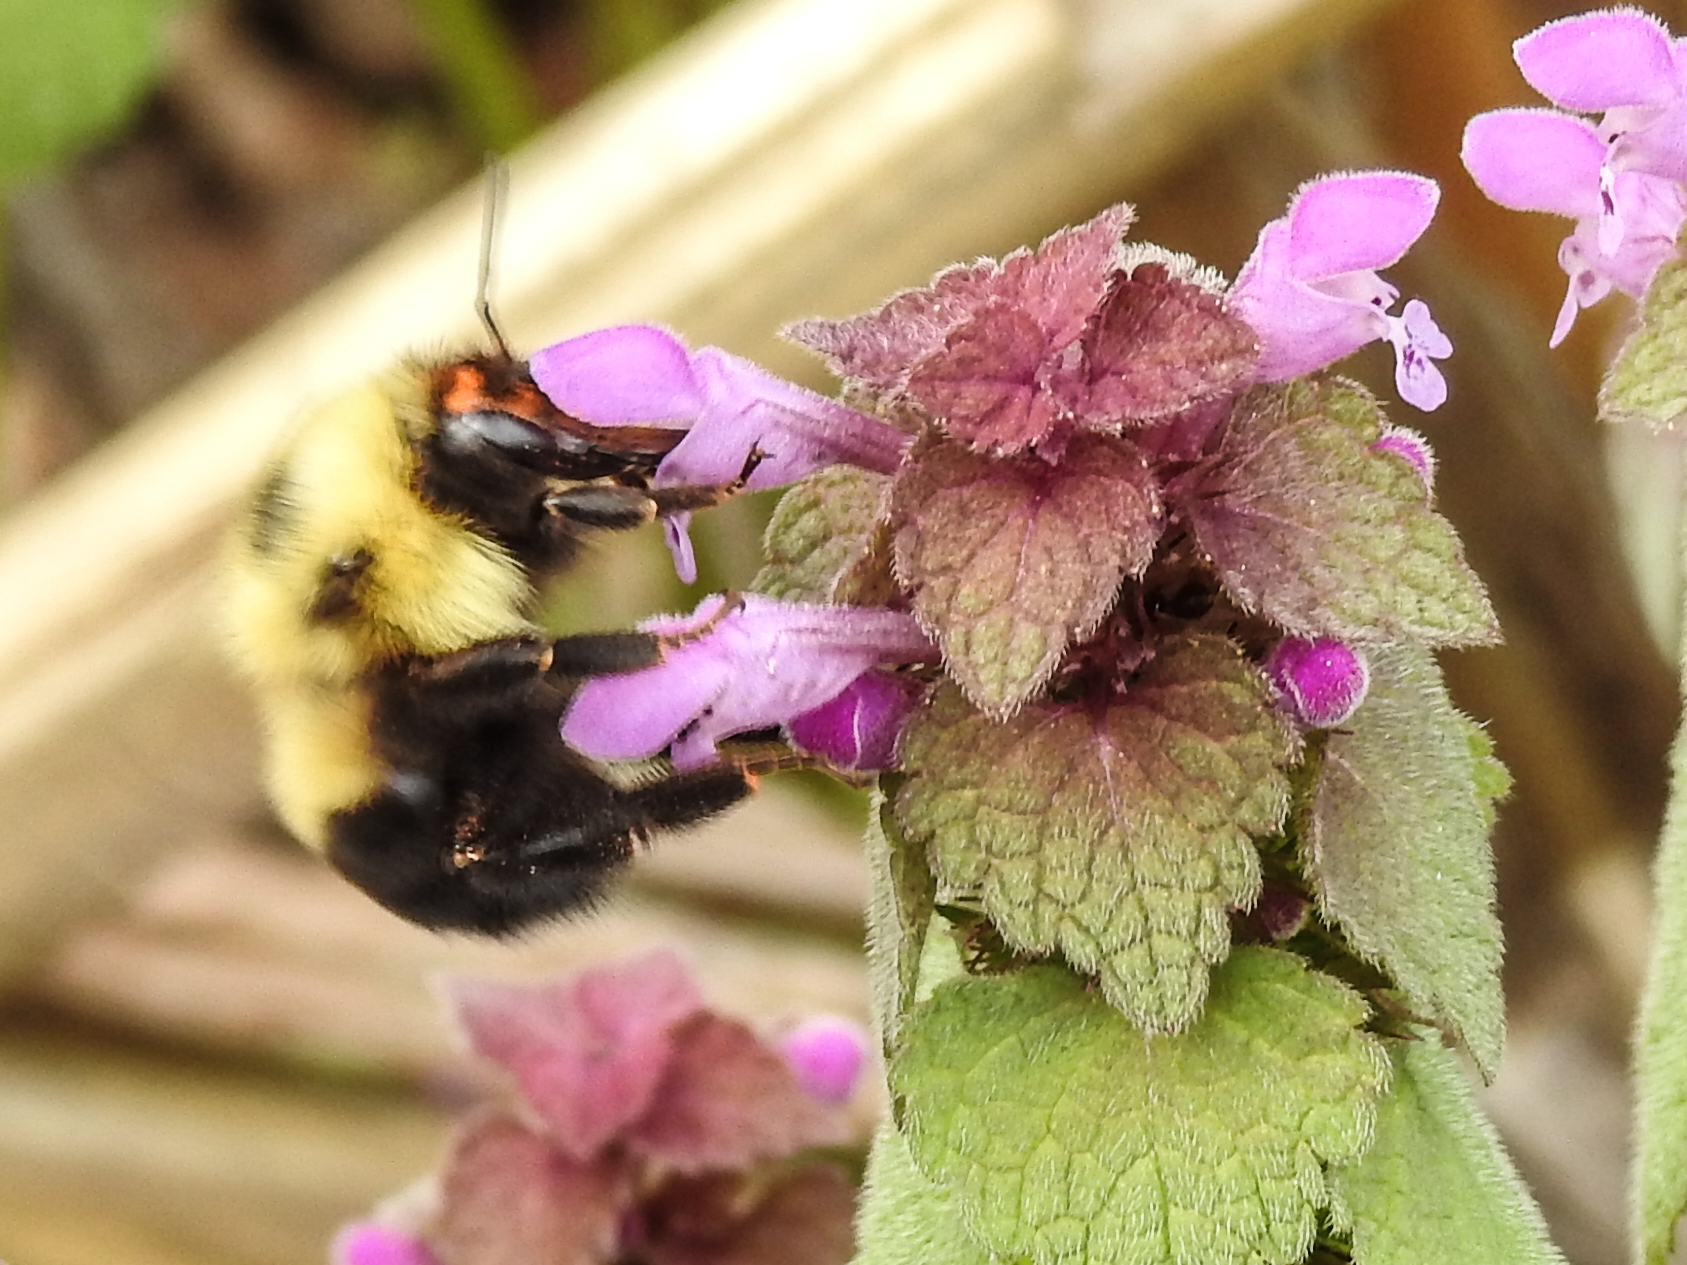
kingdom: Animalia
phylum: Arthropoda
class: Insecta
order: Hymenoptera
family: Apidae
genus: Bombus
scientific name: Bombus bimaculatus
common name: Two-spotted bumble bee
